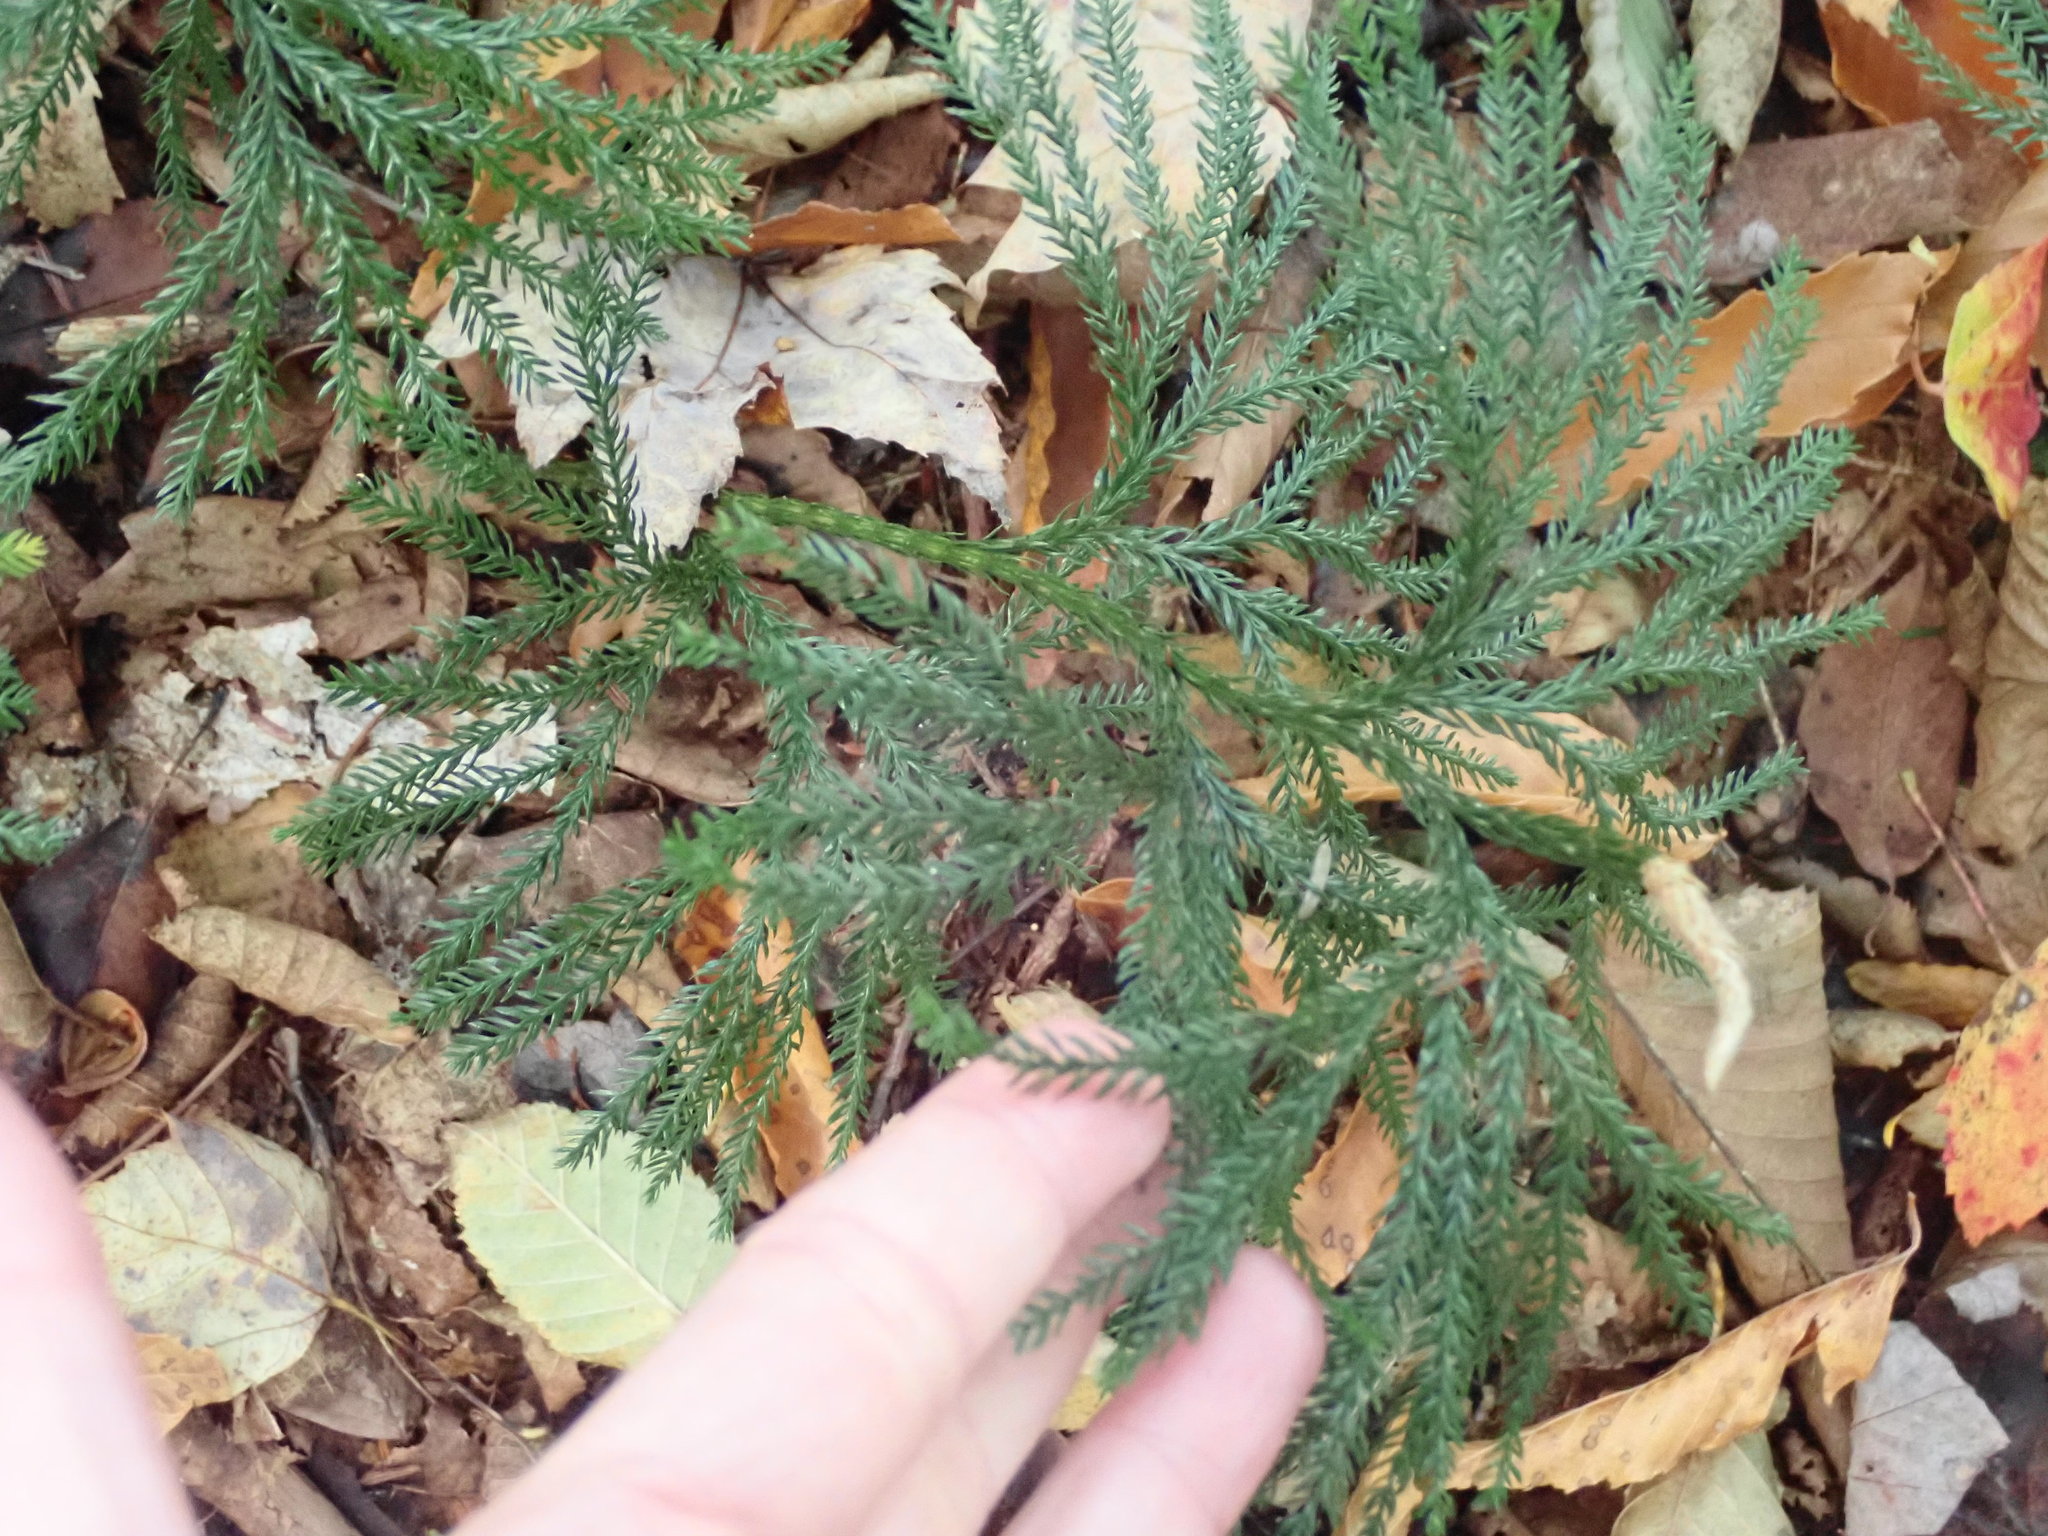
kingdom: Plantae
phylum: Tracheophyta
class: Lycopodiopsida
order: Lycopodiales
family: Lycopodiaceae
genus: Dendrolycopodium
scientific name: Dendrolycopodium obscurum
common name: Common ground-pine
